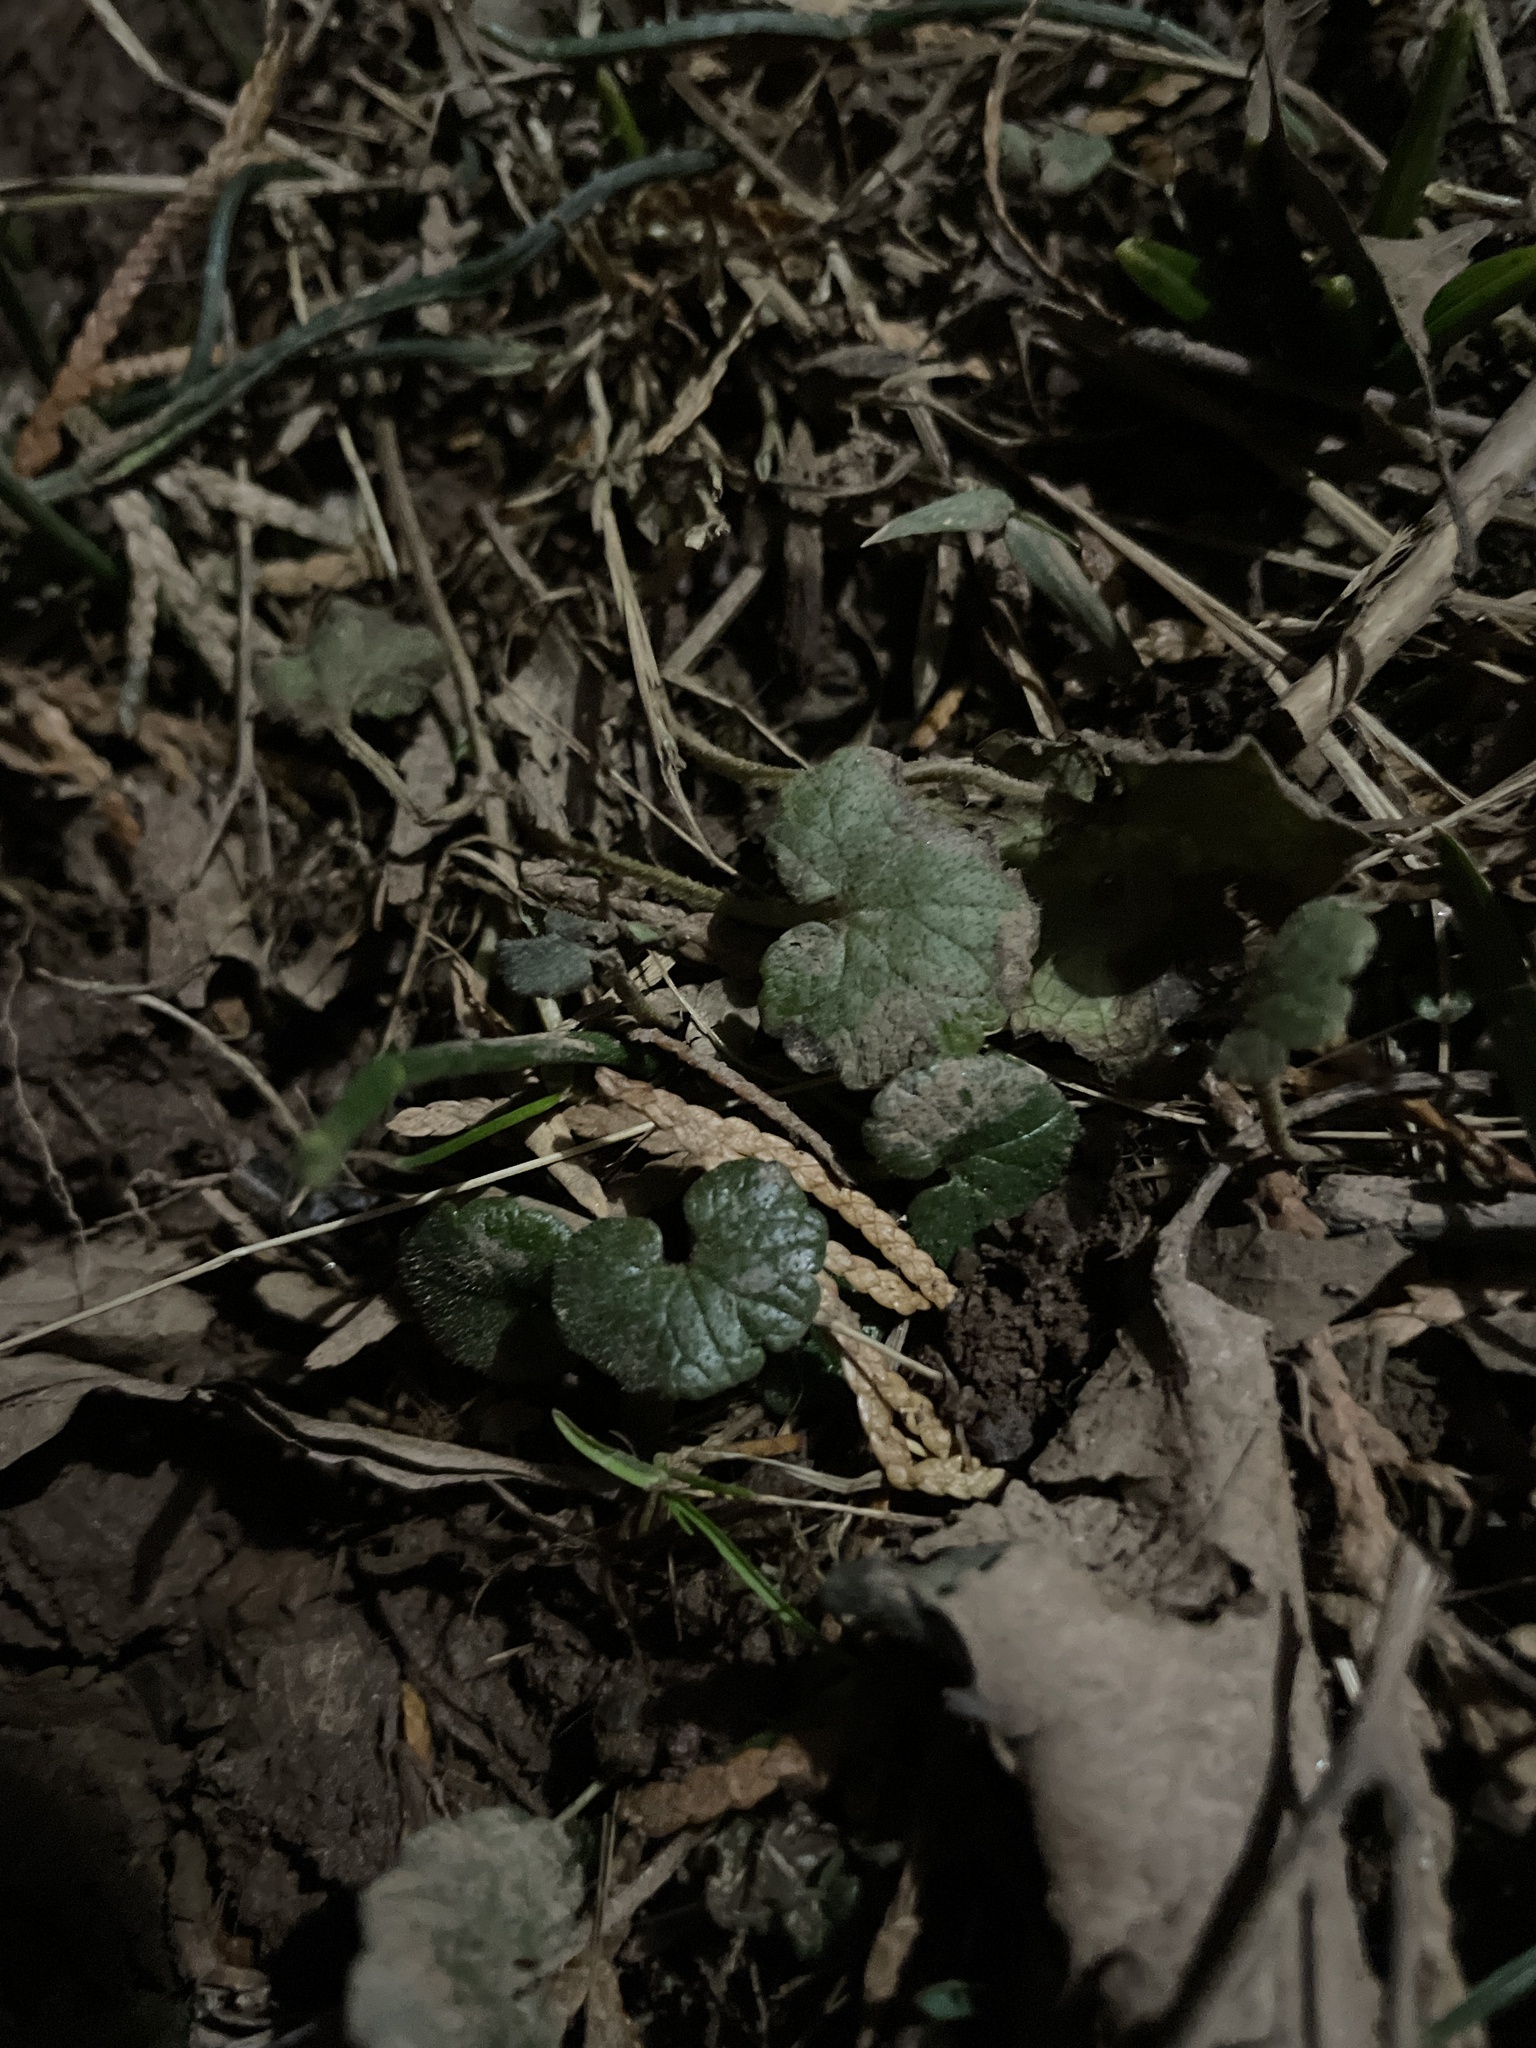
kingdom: Plantae
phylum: Tracheophyta
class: Magnoliopsida
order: Lamiales
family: Lamiaceae
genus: Glechoma
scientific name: Glechoma hederacea
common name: Ground ivy
